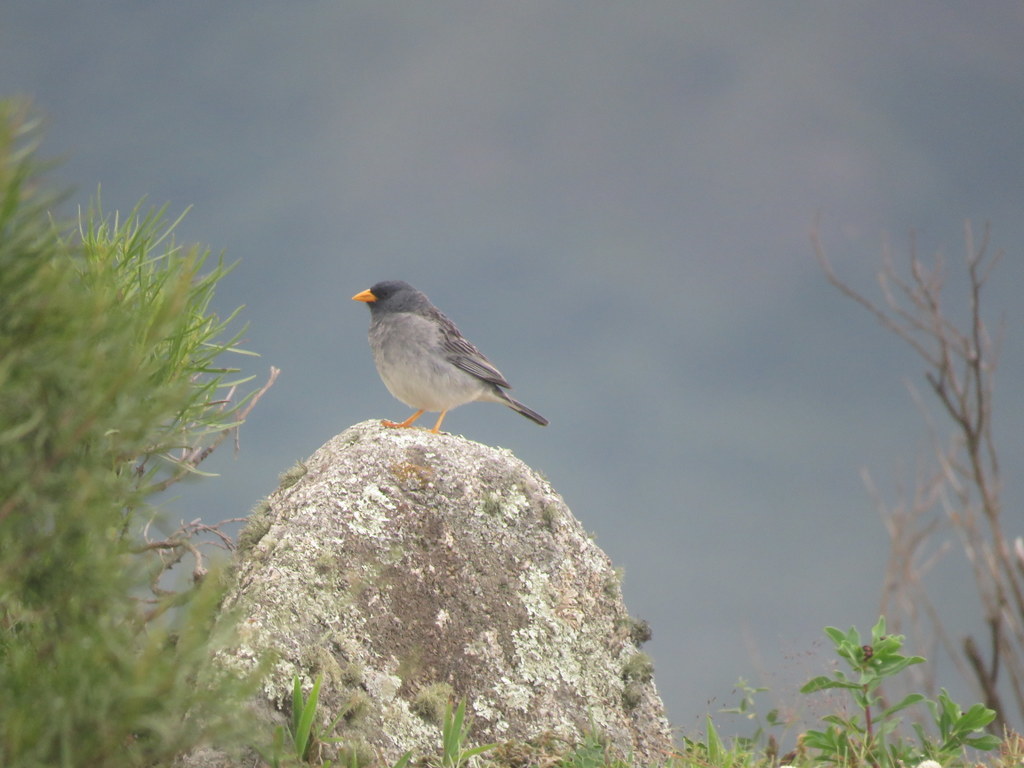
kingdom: Animalia
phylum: Chordata
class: Aves
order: Passeriformes
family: Thraupidae
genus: Porphyrospiza
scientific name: Porphyrospiza alaudina
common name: Band-tailed sierra finch
